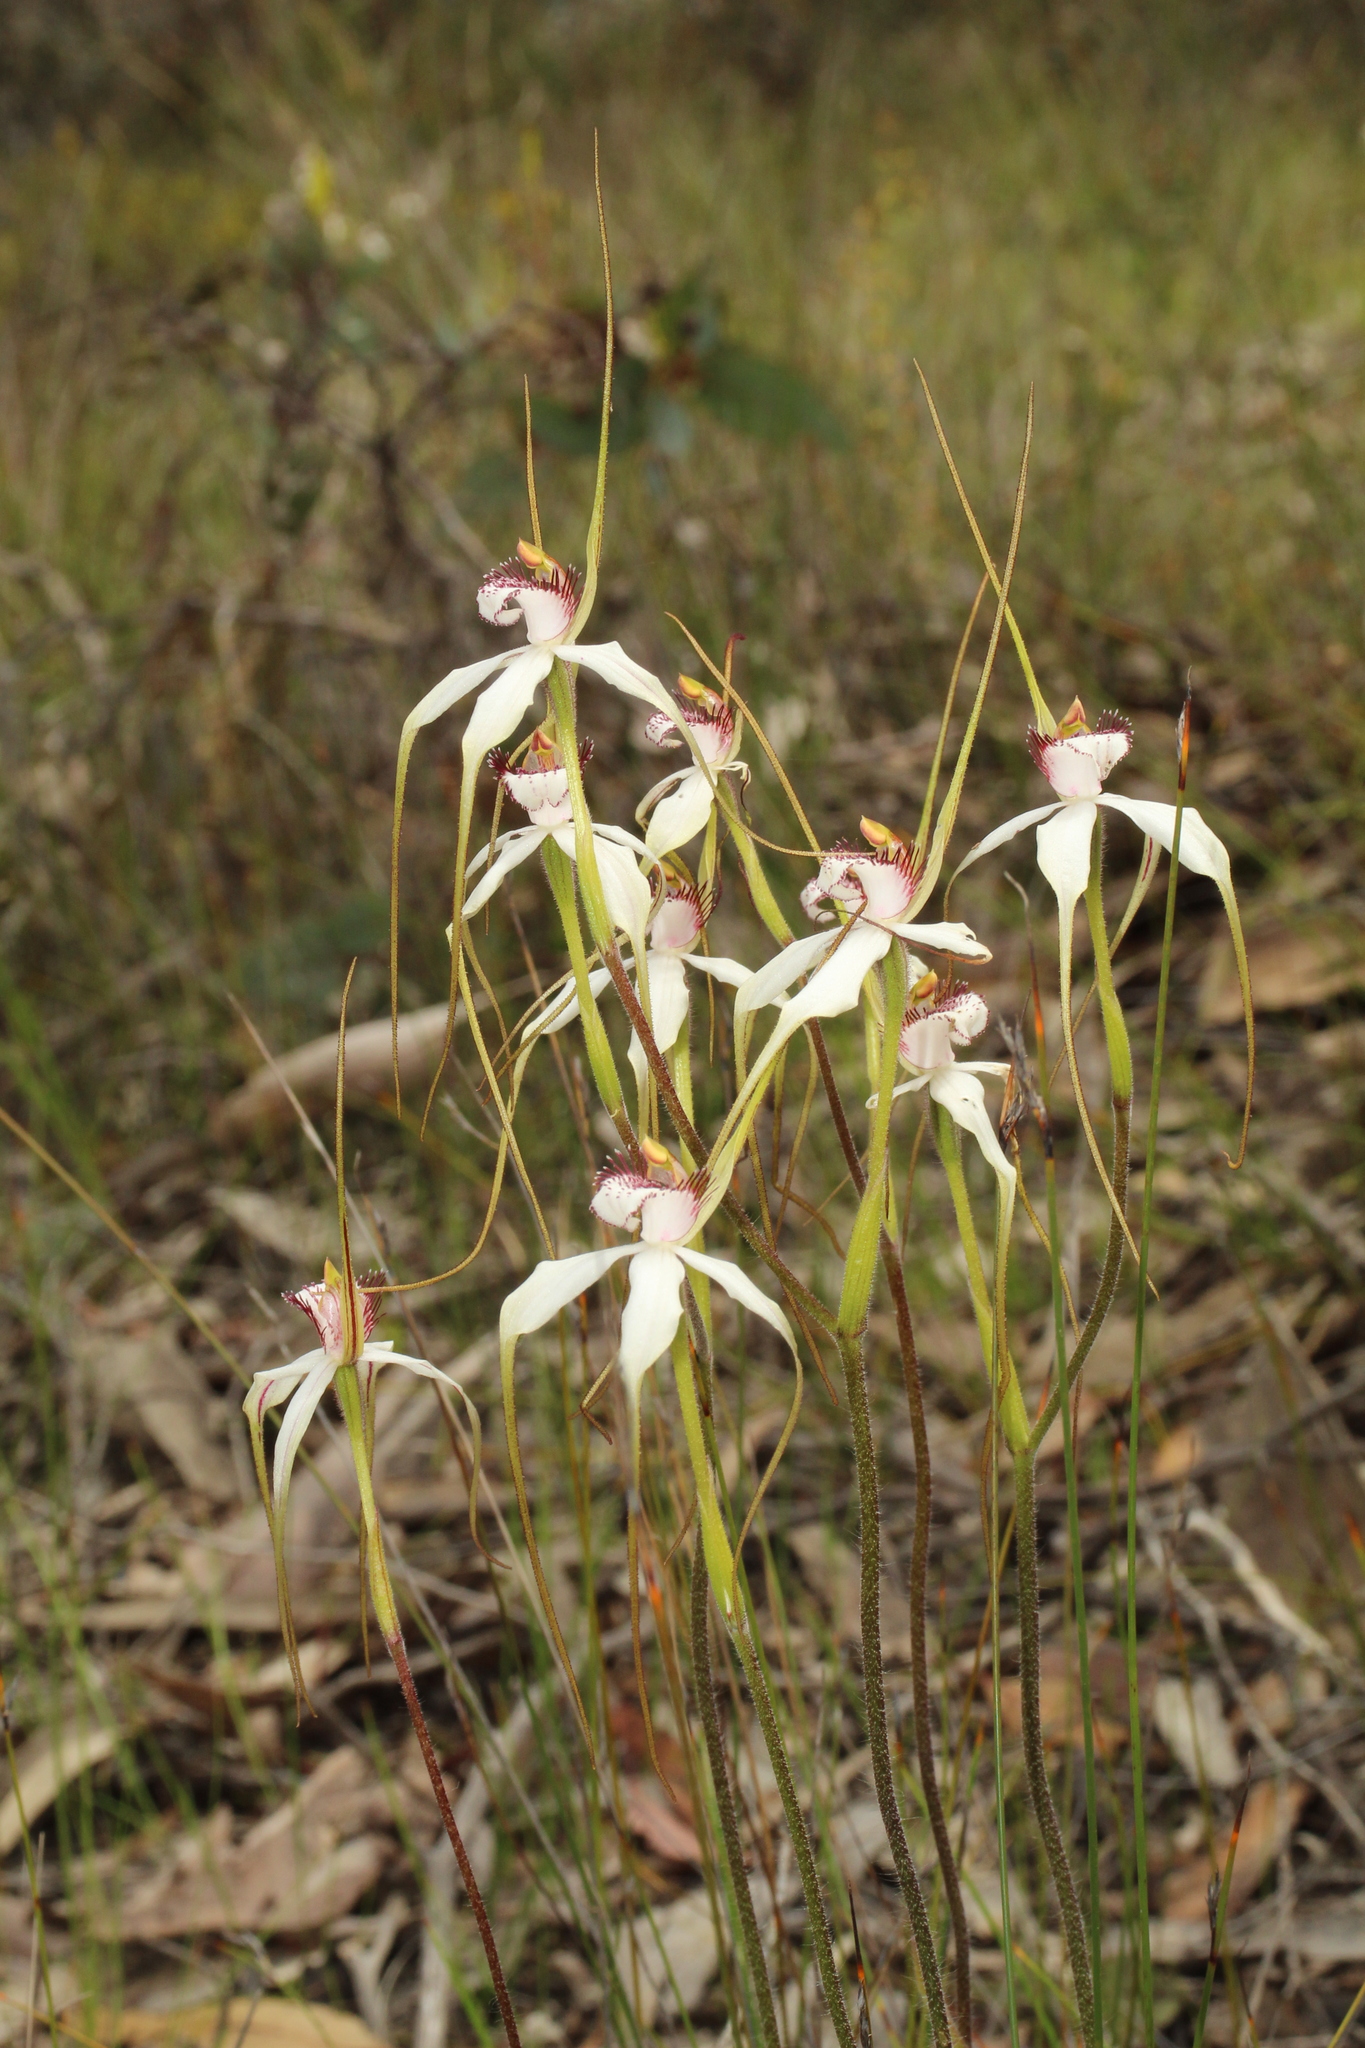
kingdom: Plantae
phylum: Tracheophyta
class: Liliopsida
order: Asparagales
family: Orchidaceae
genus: Caladenia
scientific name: Caladenia longicauda
